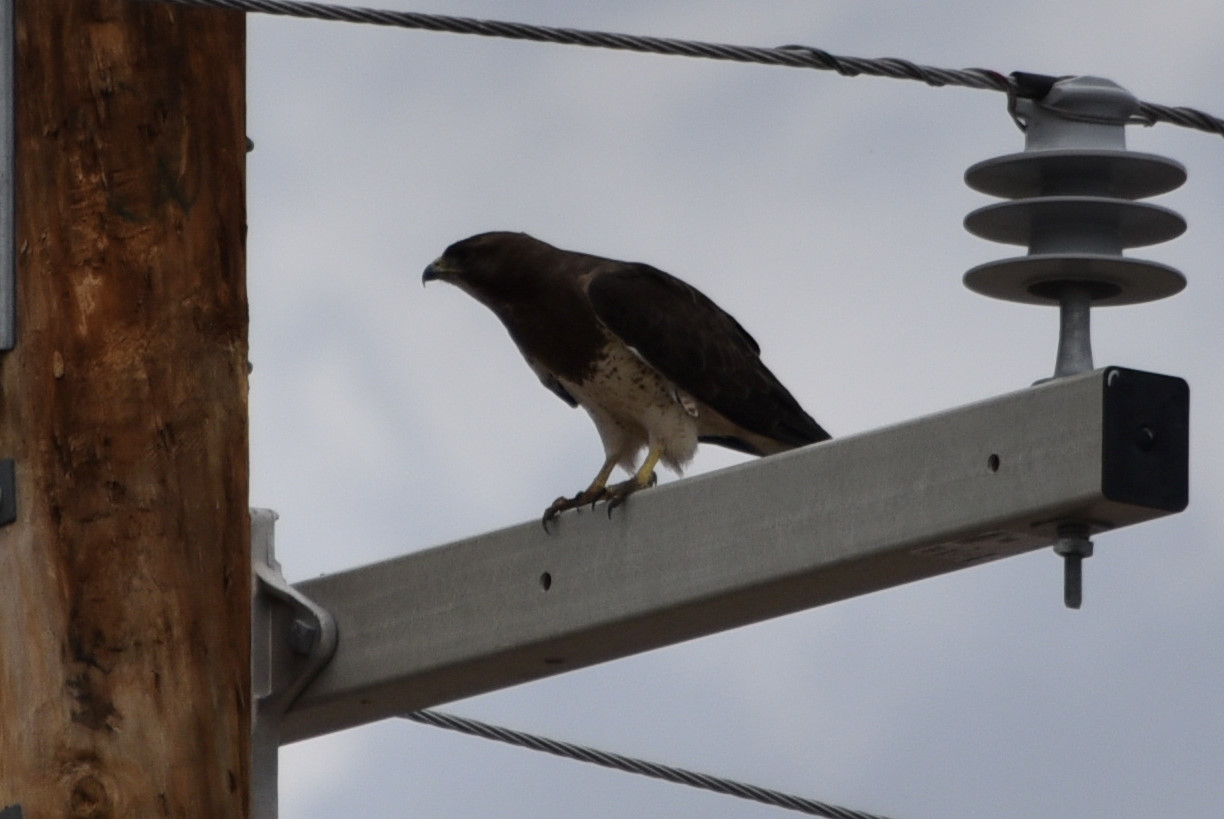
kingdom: Animalia
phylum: Chordata
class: Aves
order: Accipitriformes
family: Accipitridae
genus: Buteo
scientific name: Buteo swainsoni
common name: Swainson's hawk
